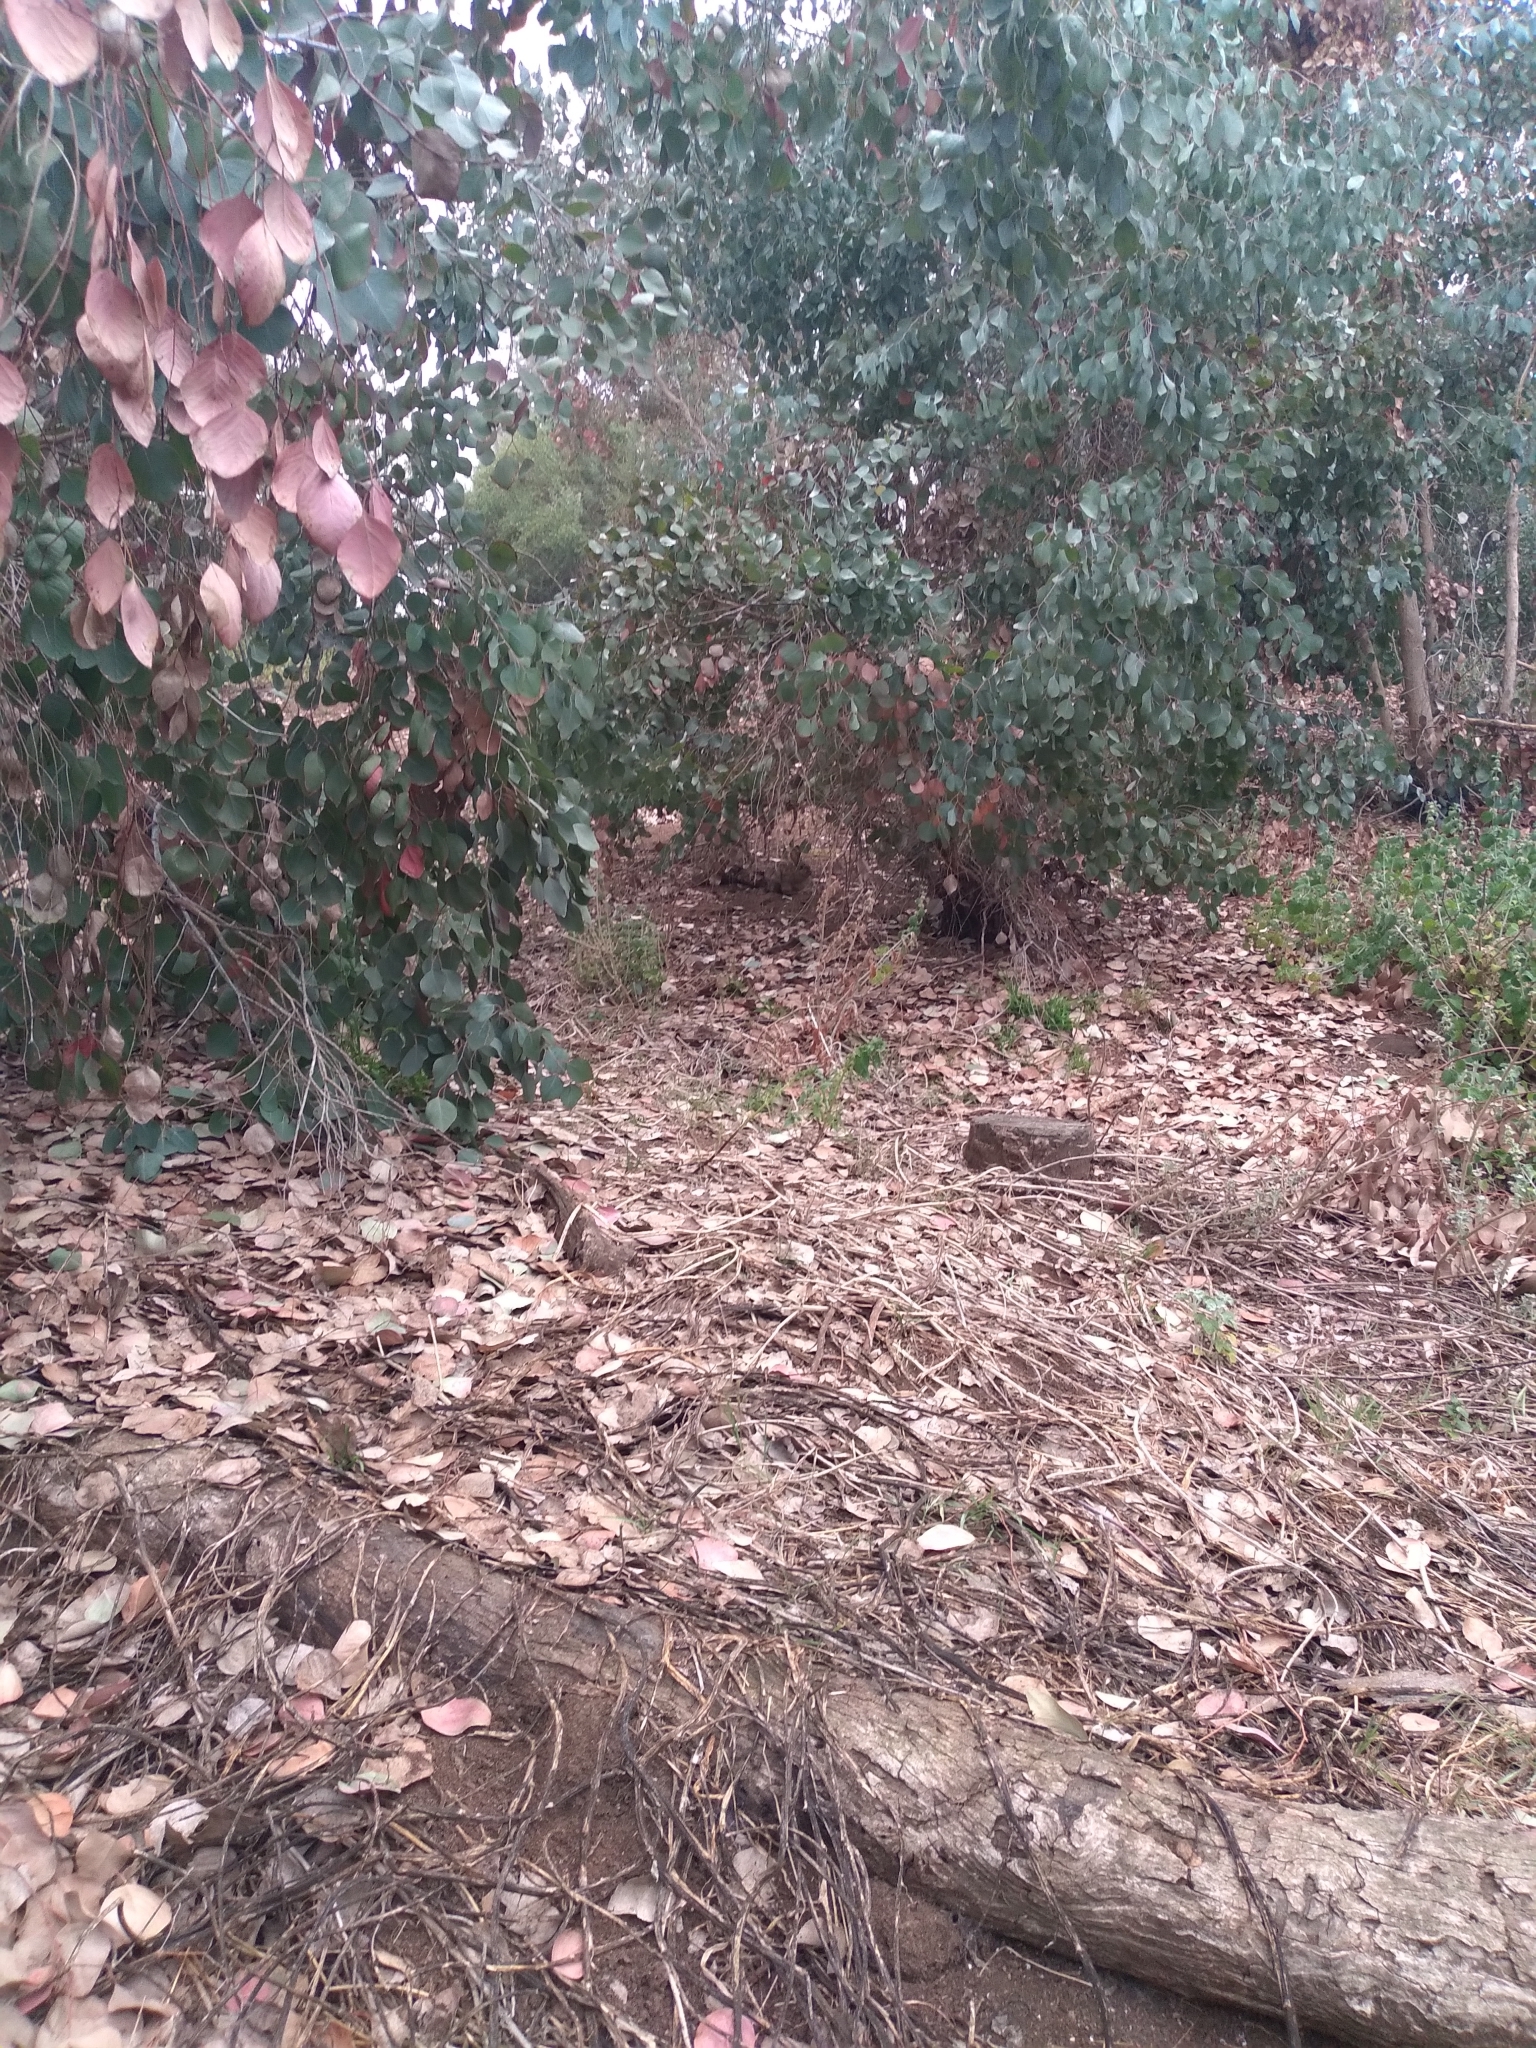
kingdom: Animalia
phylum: Chordata
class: Mammalia
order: Lagomorpha
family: Leporidae
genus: Sylvilagus
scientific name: Sylvilagus bachmani
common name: Brush rabbit
